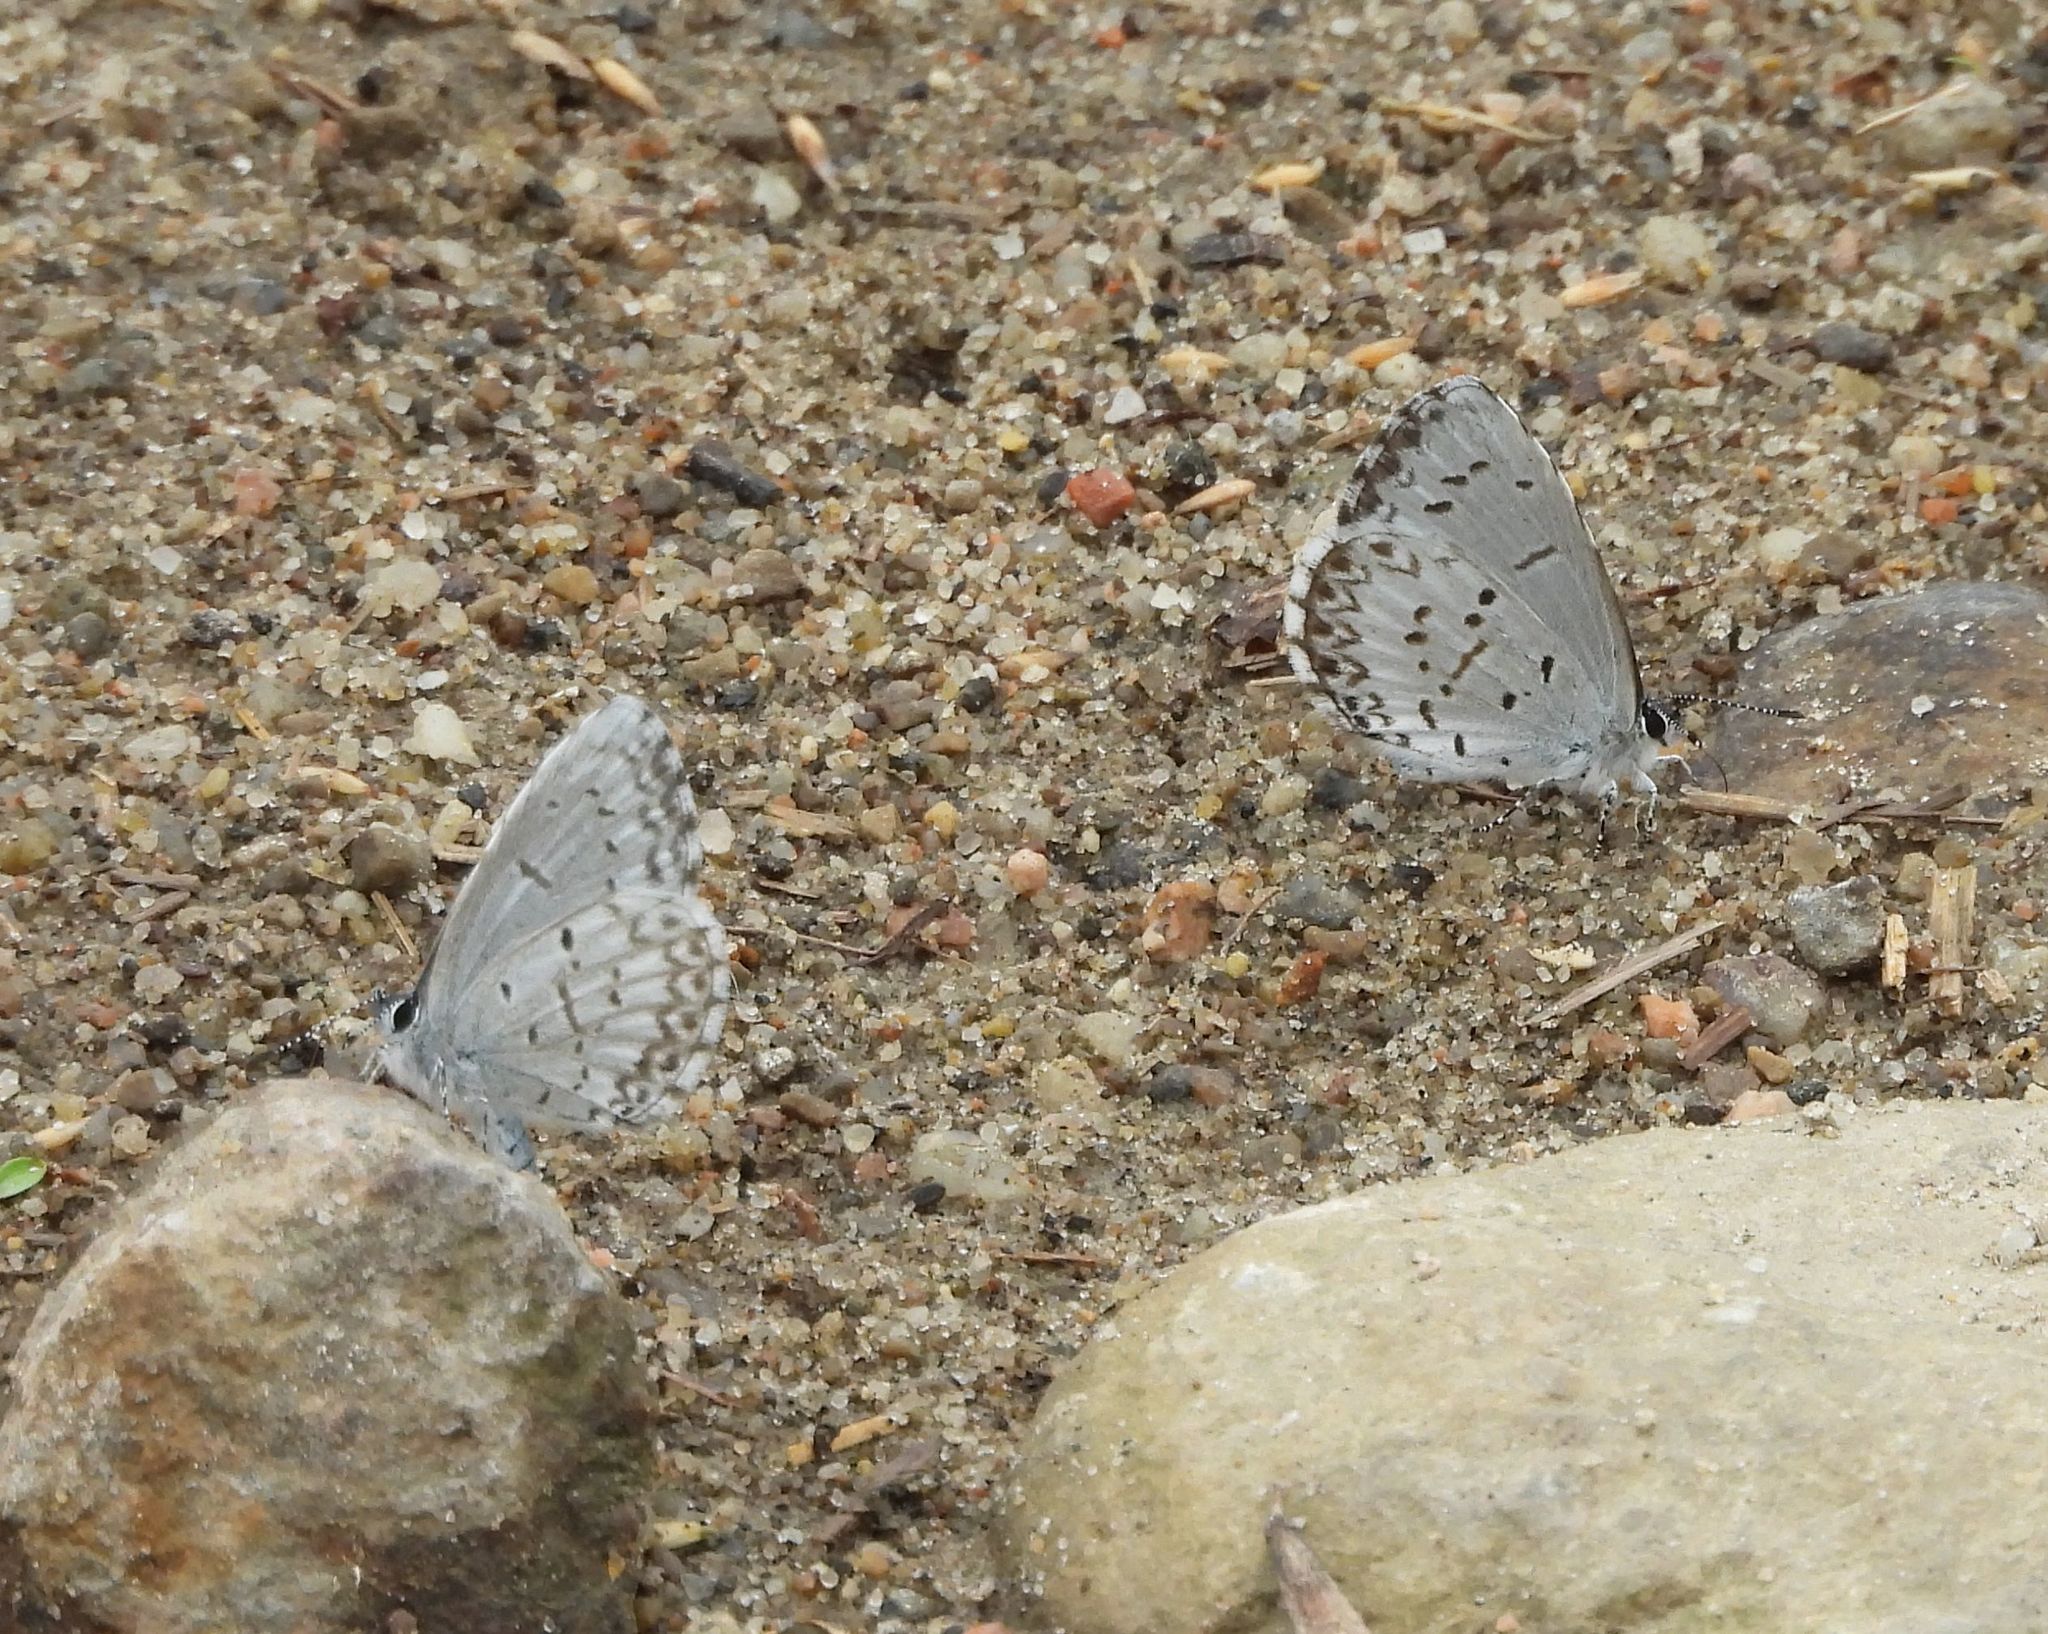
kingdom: Animalia
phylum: Arthropoda
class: Insecta
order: Lepidoptera
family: Lycaenidae
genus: Celastrina
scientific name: Celastrina lucia
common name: Lucia azure
